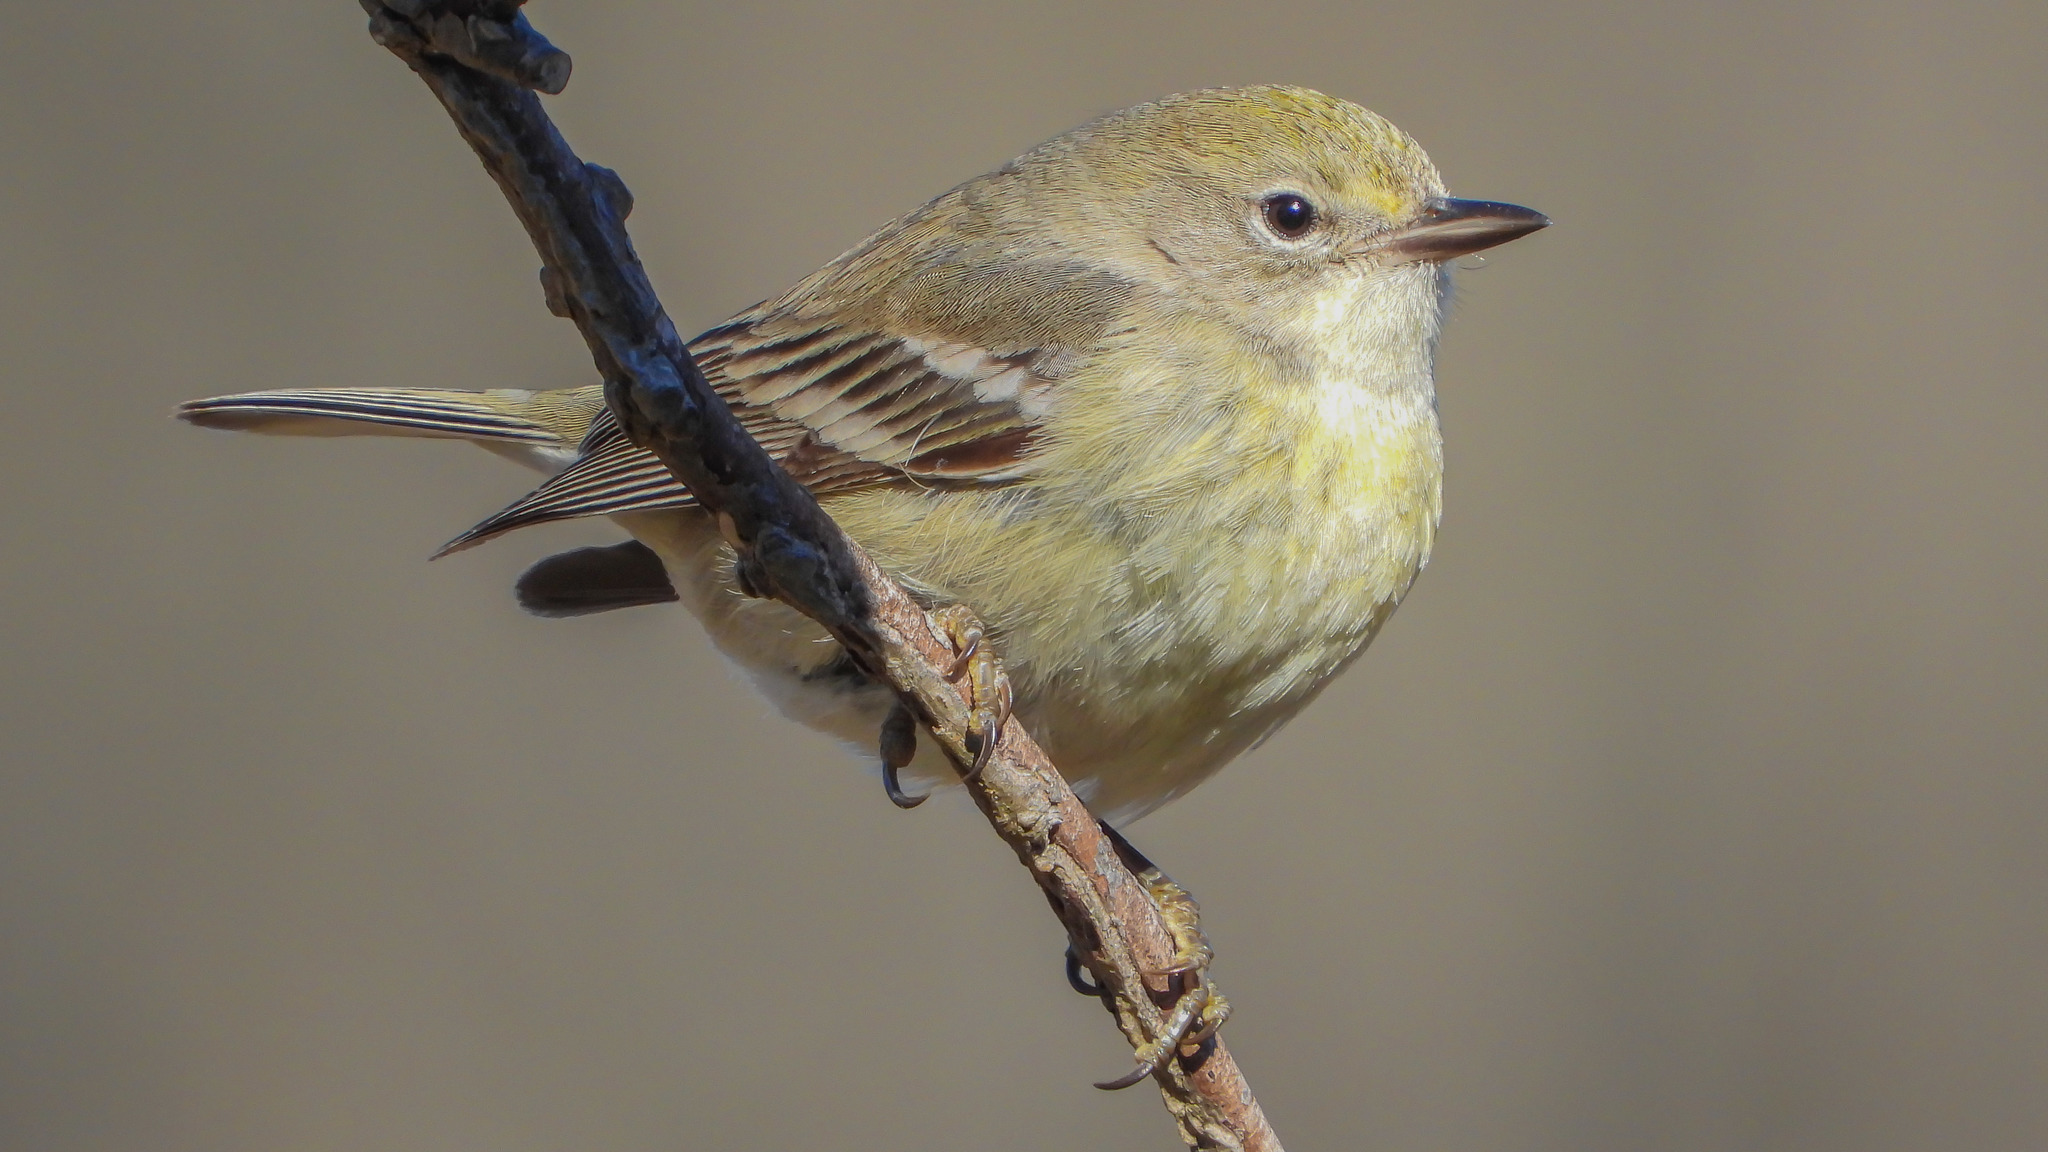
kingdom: Animalia
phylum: Chordata
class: Aves
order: Passeriformes
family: Parulidae
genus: Setophaga
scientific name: Setophaga pinus
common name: Pine warbler
